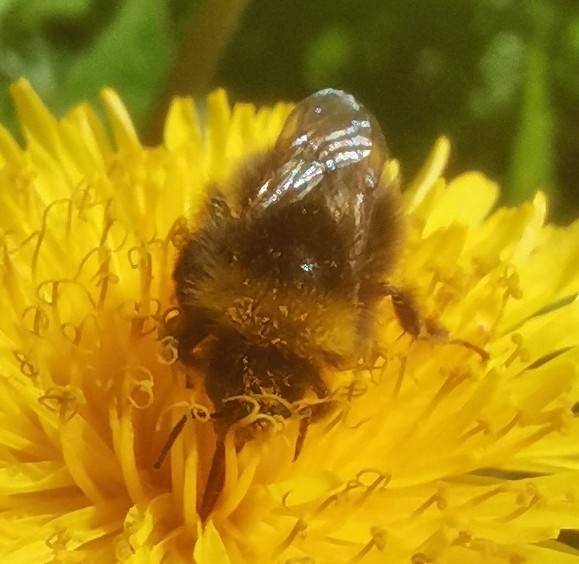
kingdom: Animalia
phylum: Arthropoda
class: Insecta
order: Hymenoptera
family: Apidae
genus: Bombus
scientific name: Bombus pratorum
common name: Early humble-bee
